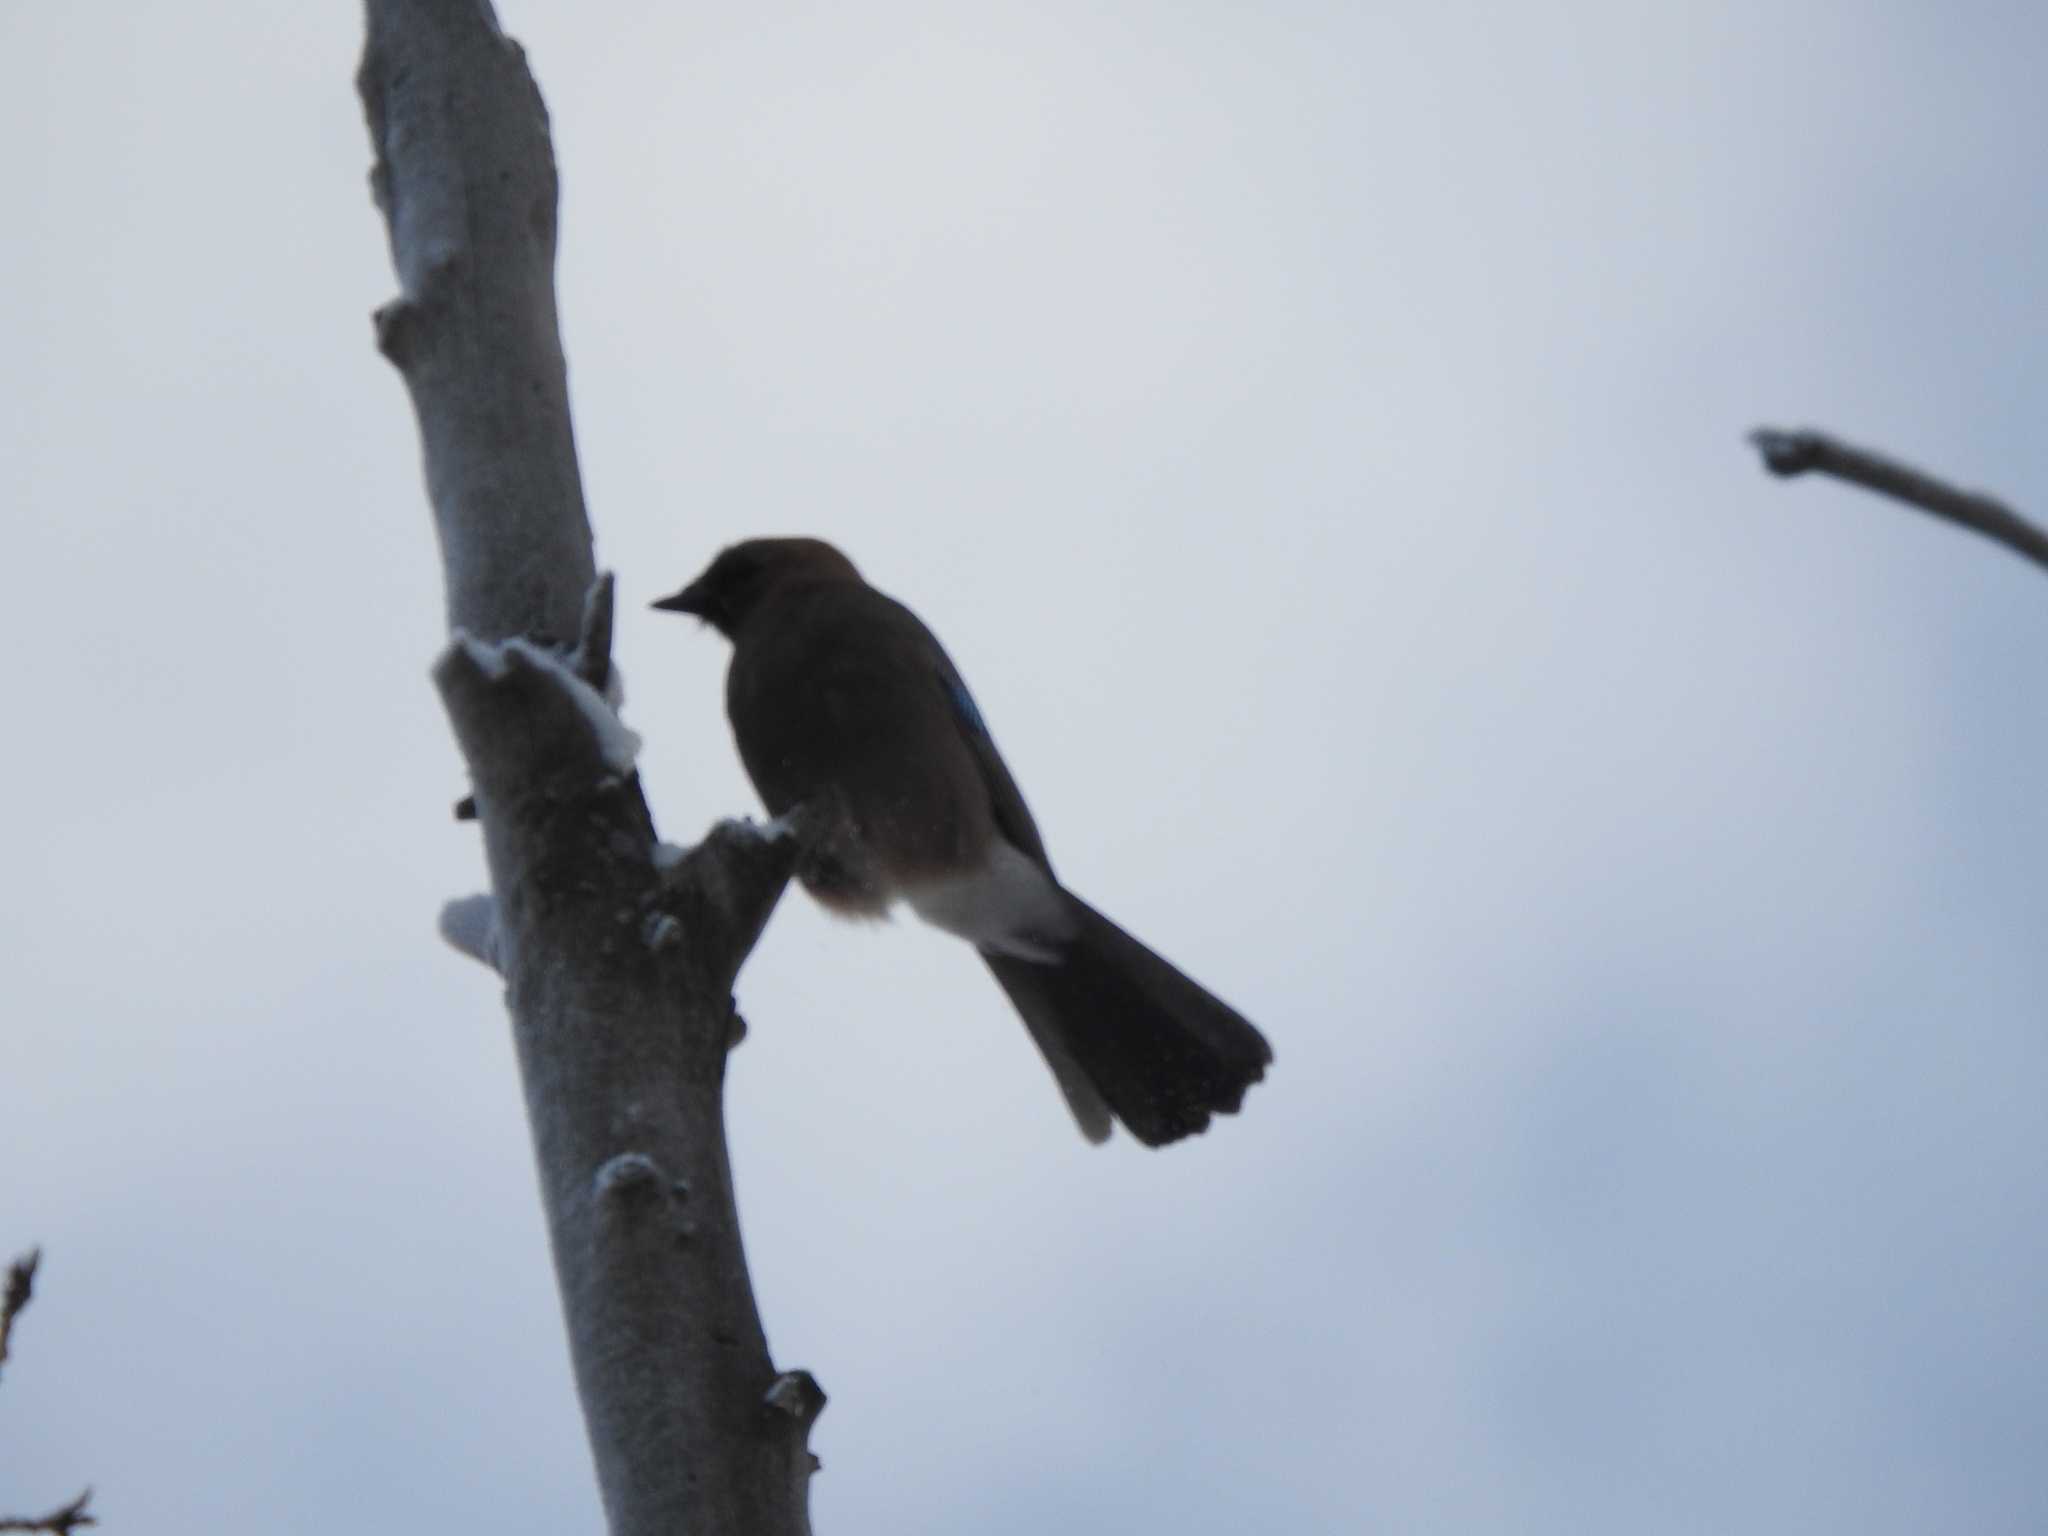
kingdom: Animalia
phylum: Chordata
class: Aves
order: Passeriformes
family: Corvidae
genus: Garrulus
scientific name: Garrulus glandarius
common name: Eurasian jay
